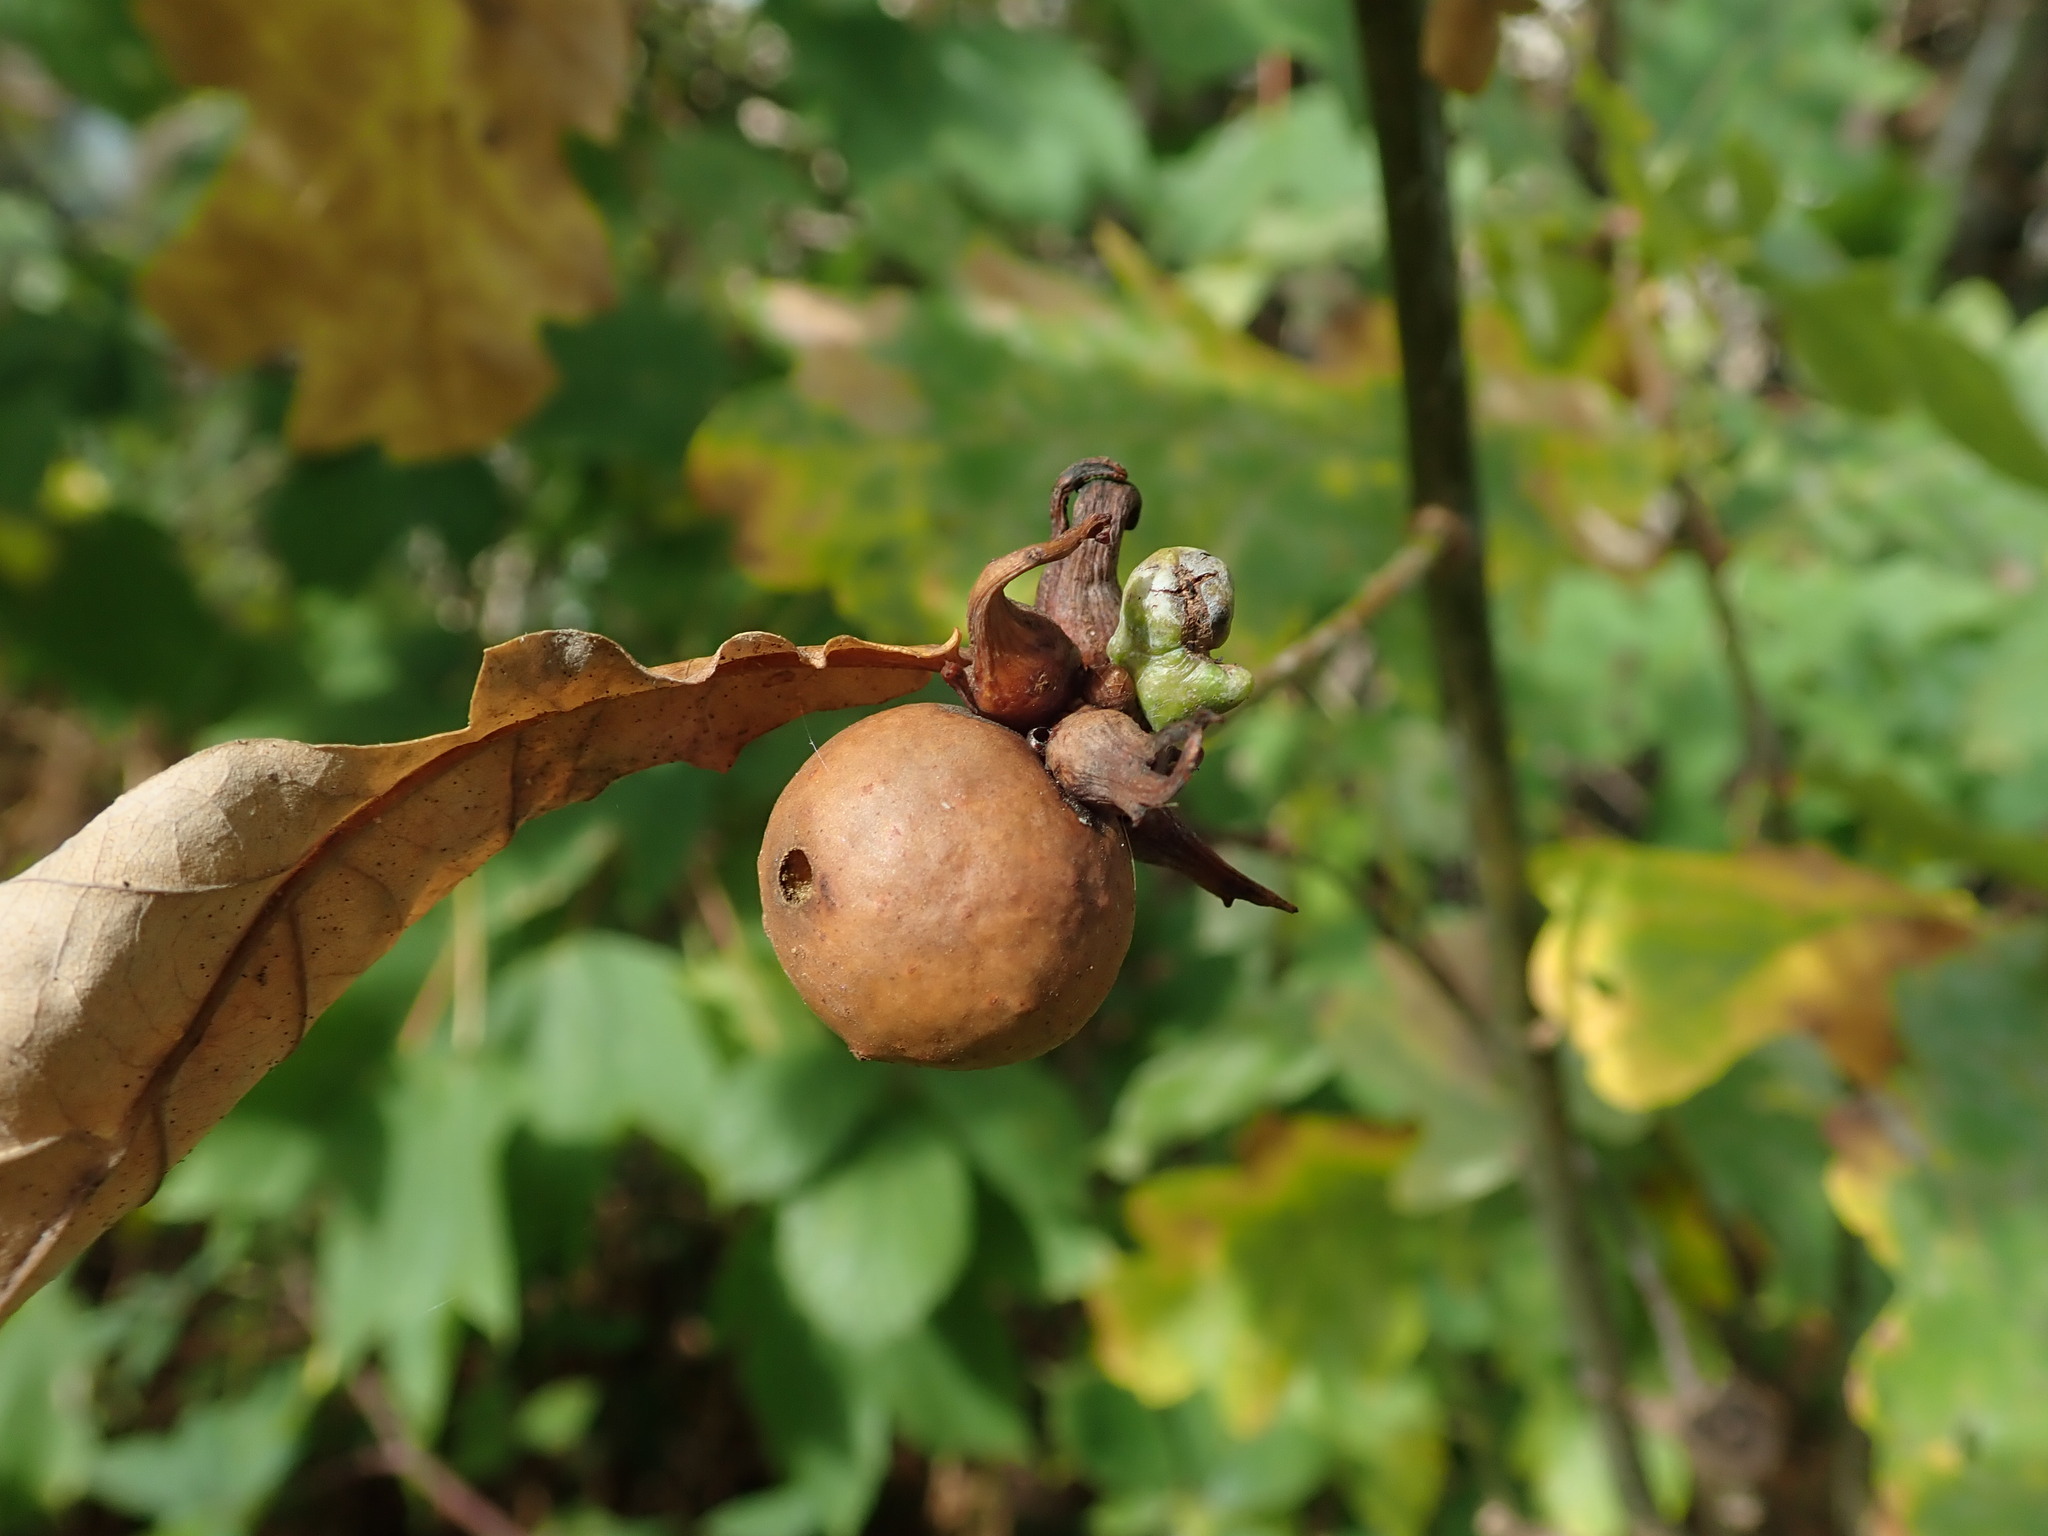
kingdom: Animalia
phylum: Arthropoda
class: Insecta
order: Hymenoptera
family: Cynipidae
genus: Andricus
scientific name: Andricus aries
